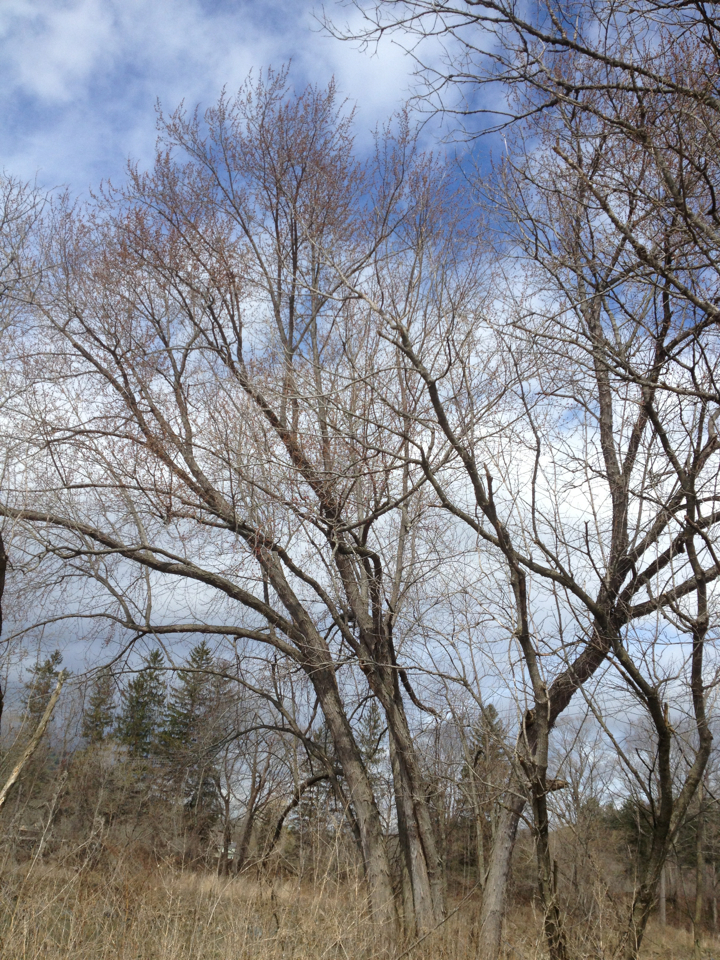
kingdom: Plantae
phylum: Tracheophyta
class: Magnoliopsida
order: Sapindales
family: Sapindaceae
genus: Acer
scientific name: Acer saccharinum
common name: Silver maple
